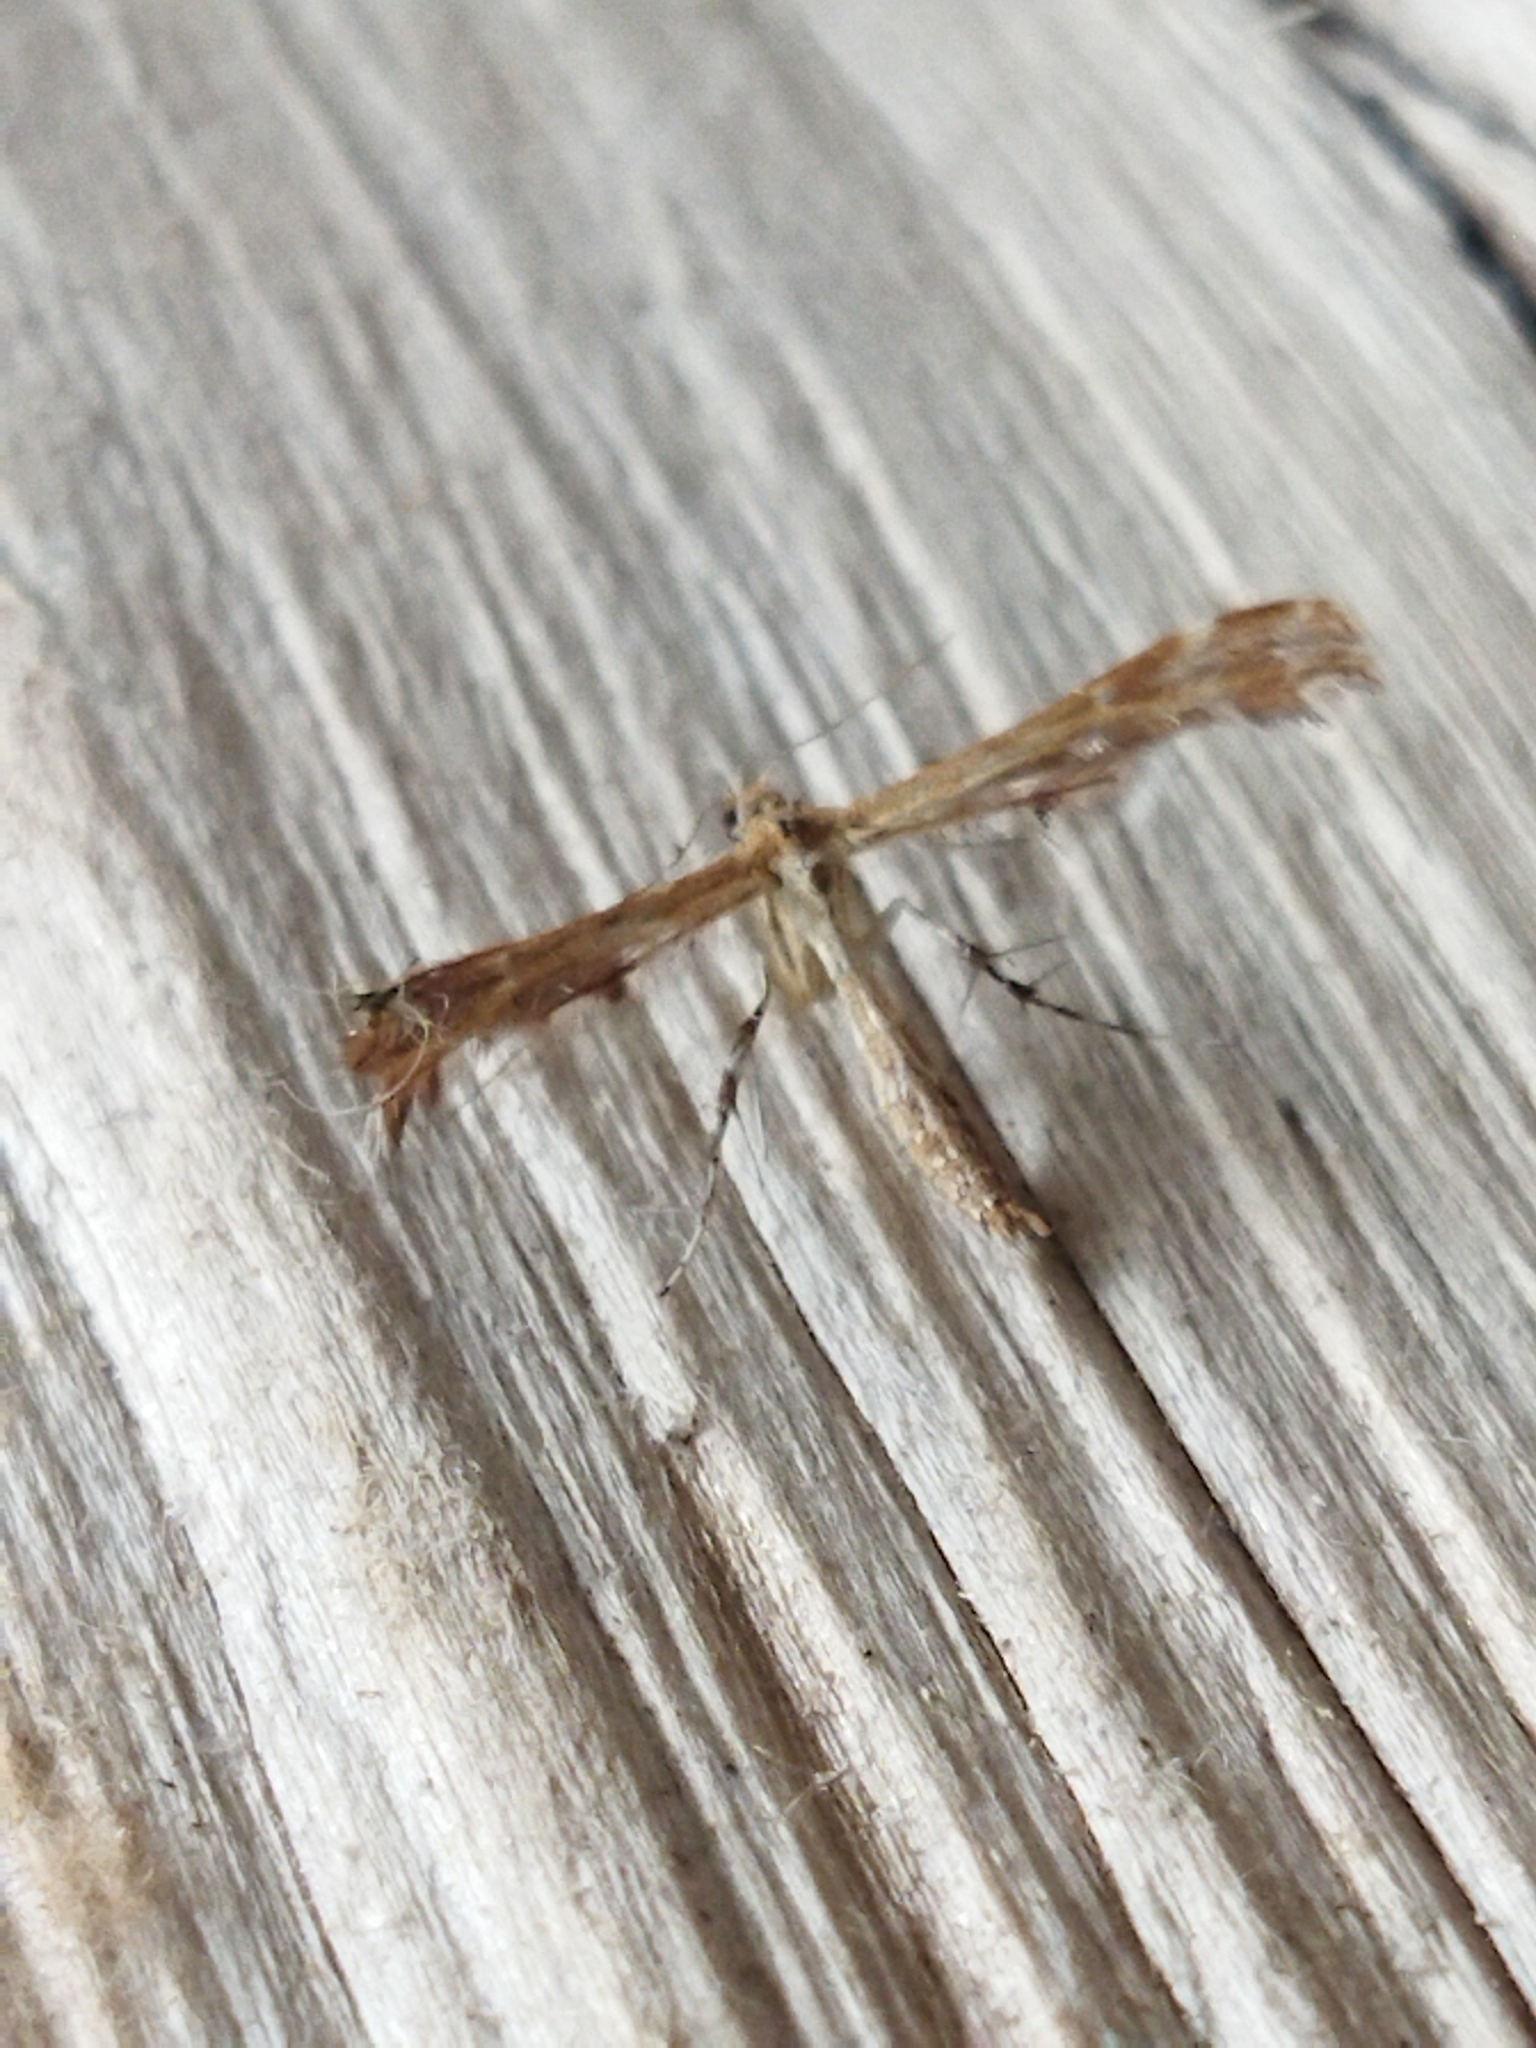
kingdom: Animalia
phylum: Arthropoda
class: Insecta
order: Lepidoptera
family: Pterophoridae
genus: Crombrugghia
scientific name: Crombrugghia
